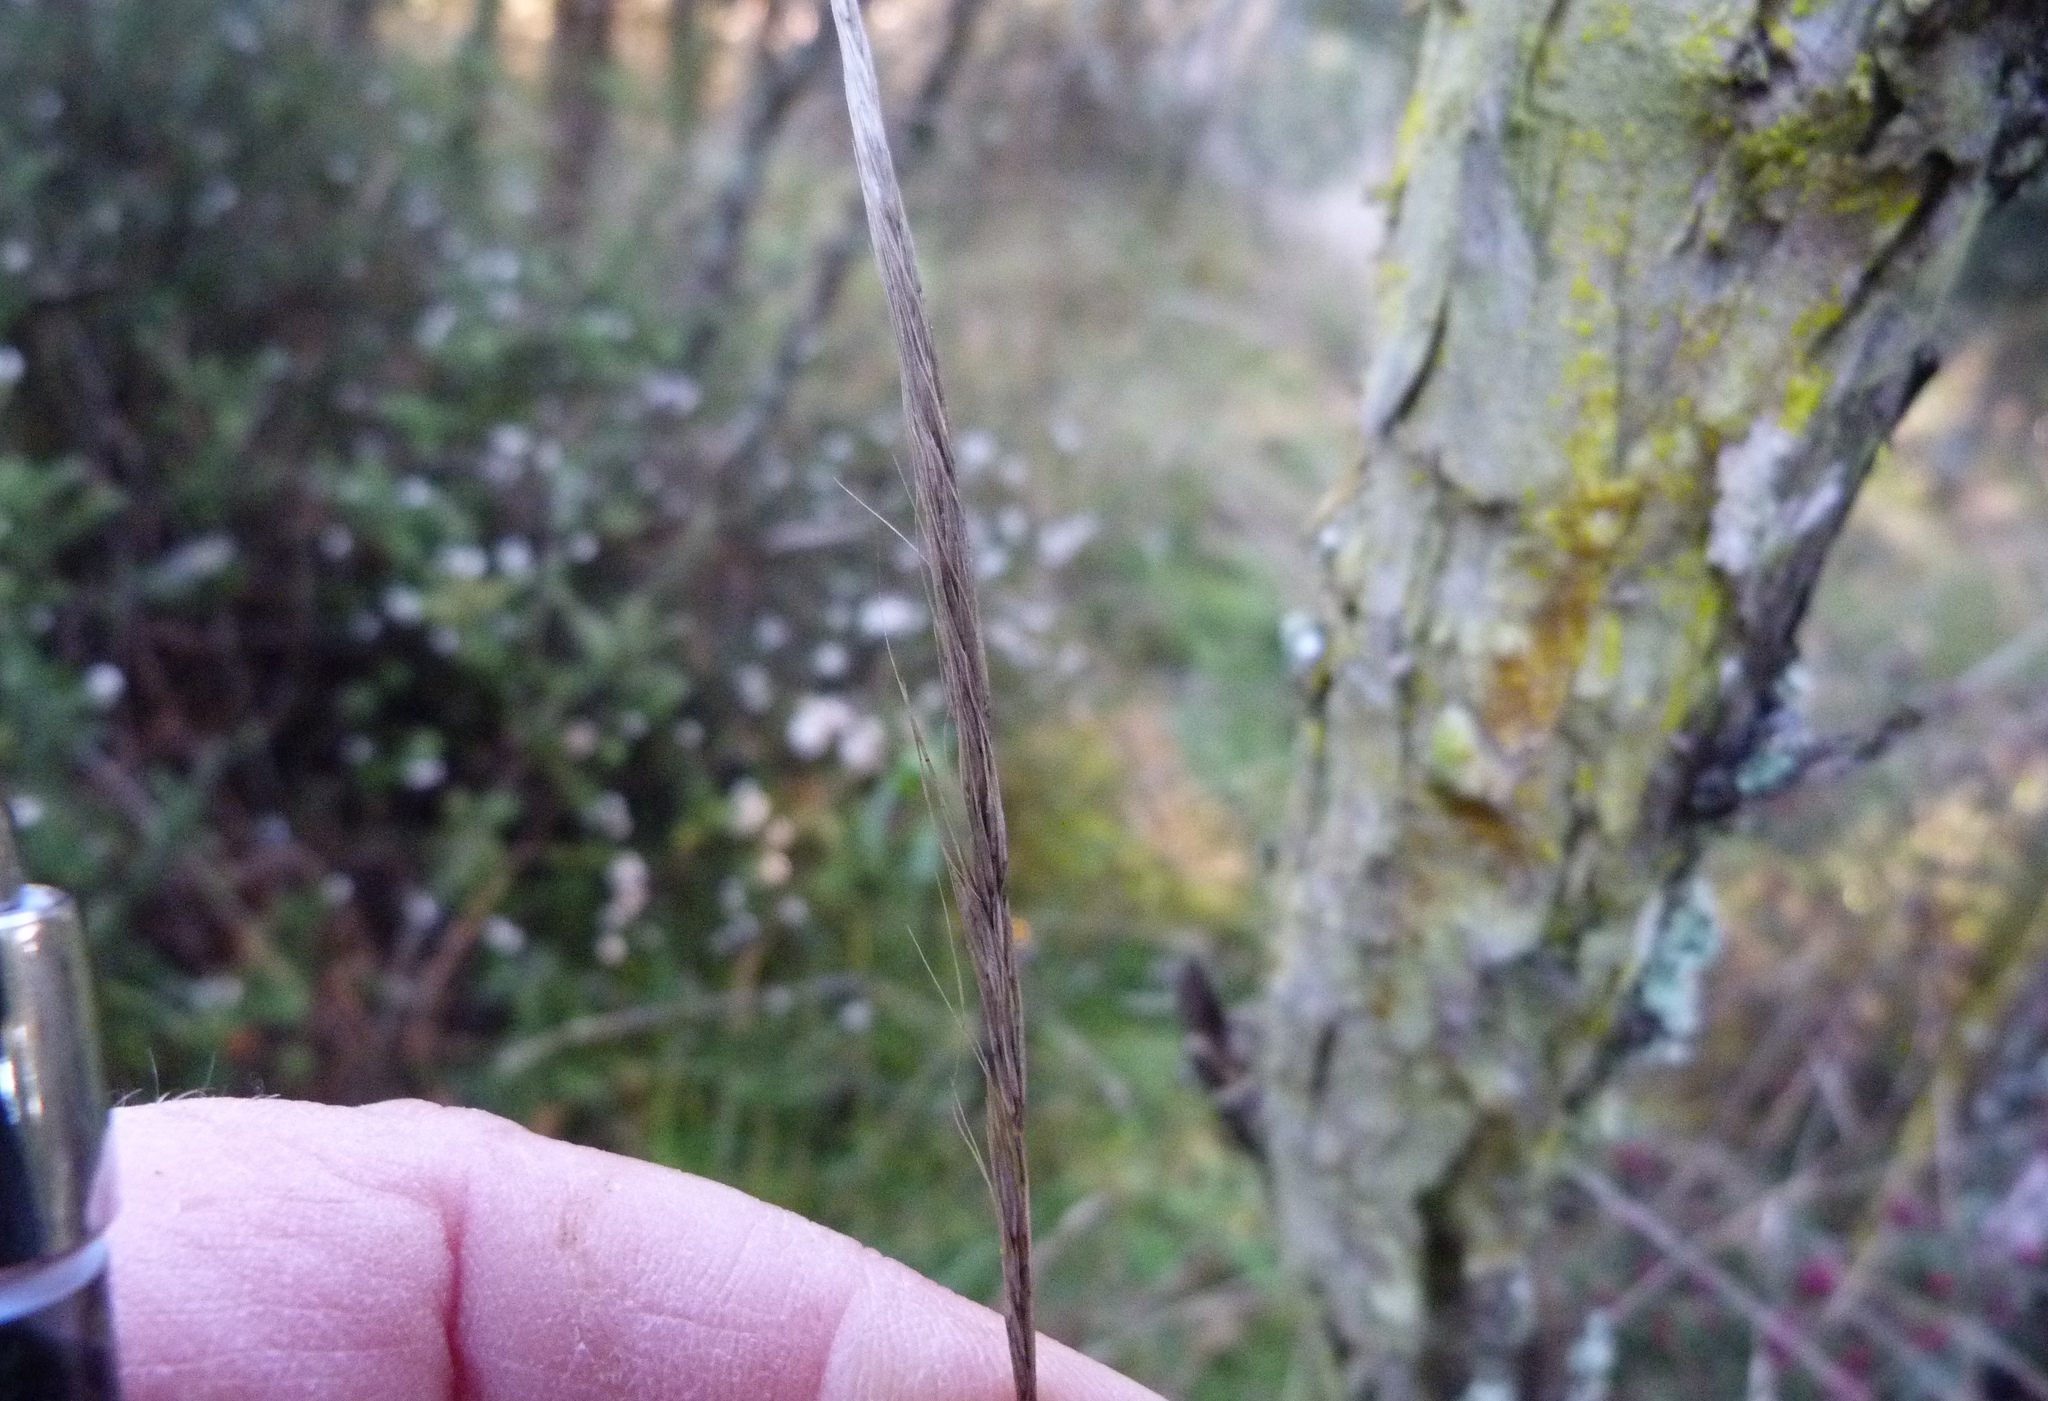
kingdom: Plantae
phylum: Tracheophyta
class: Liliopsida
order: Poales
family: Poaceae
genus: Dichelachne
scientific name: Dichelachne crinita
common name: Clovenfoot plumegrass
